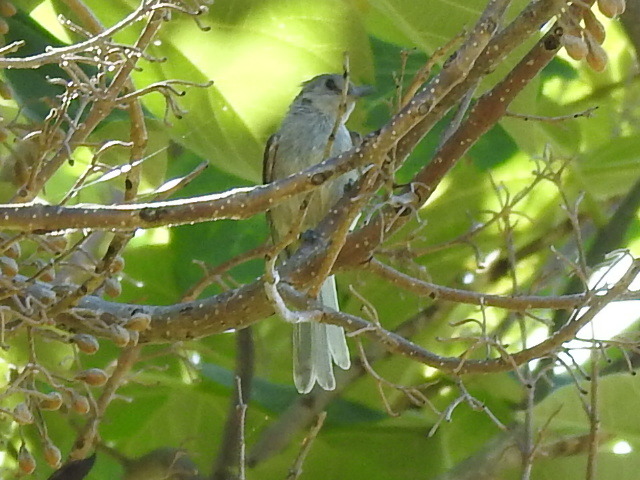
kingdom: Animalia
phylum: Chordata
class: Aves
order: Passeriformes
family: Paridae
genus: Baeolophus
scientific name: Baeolophus bicolor
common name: Tufted titmouse
